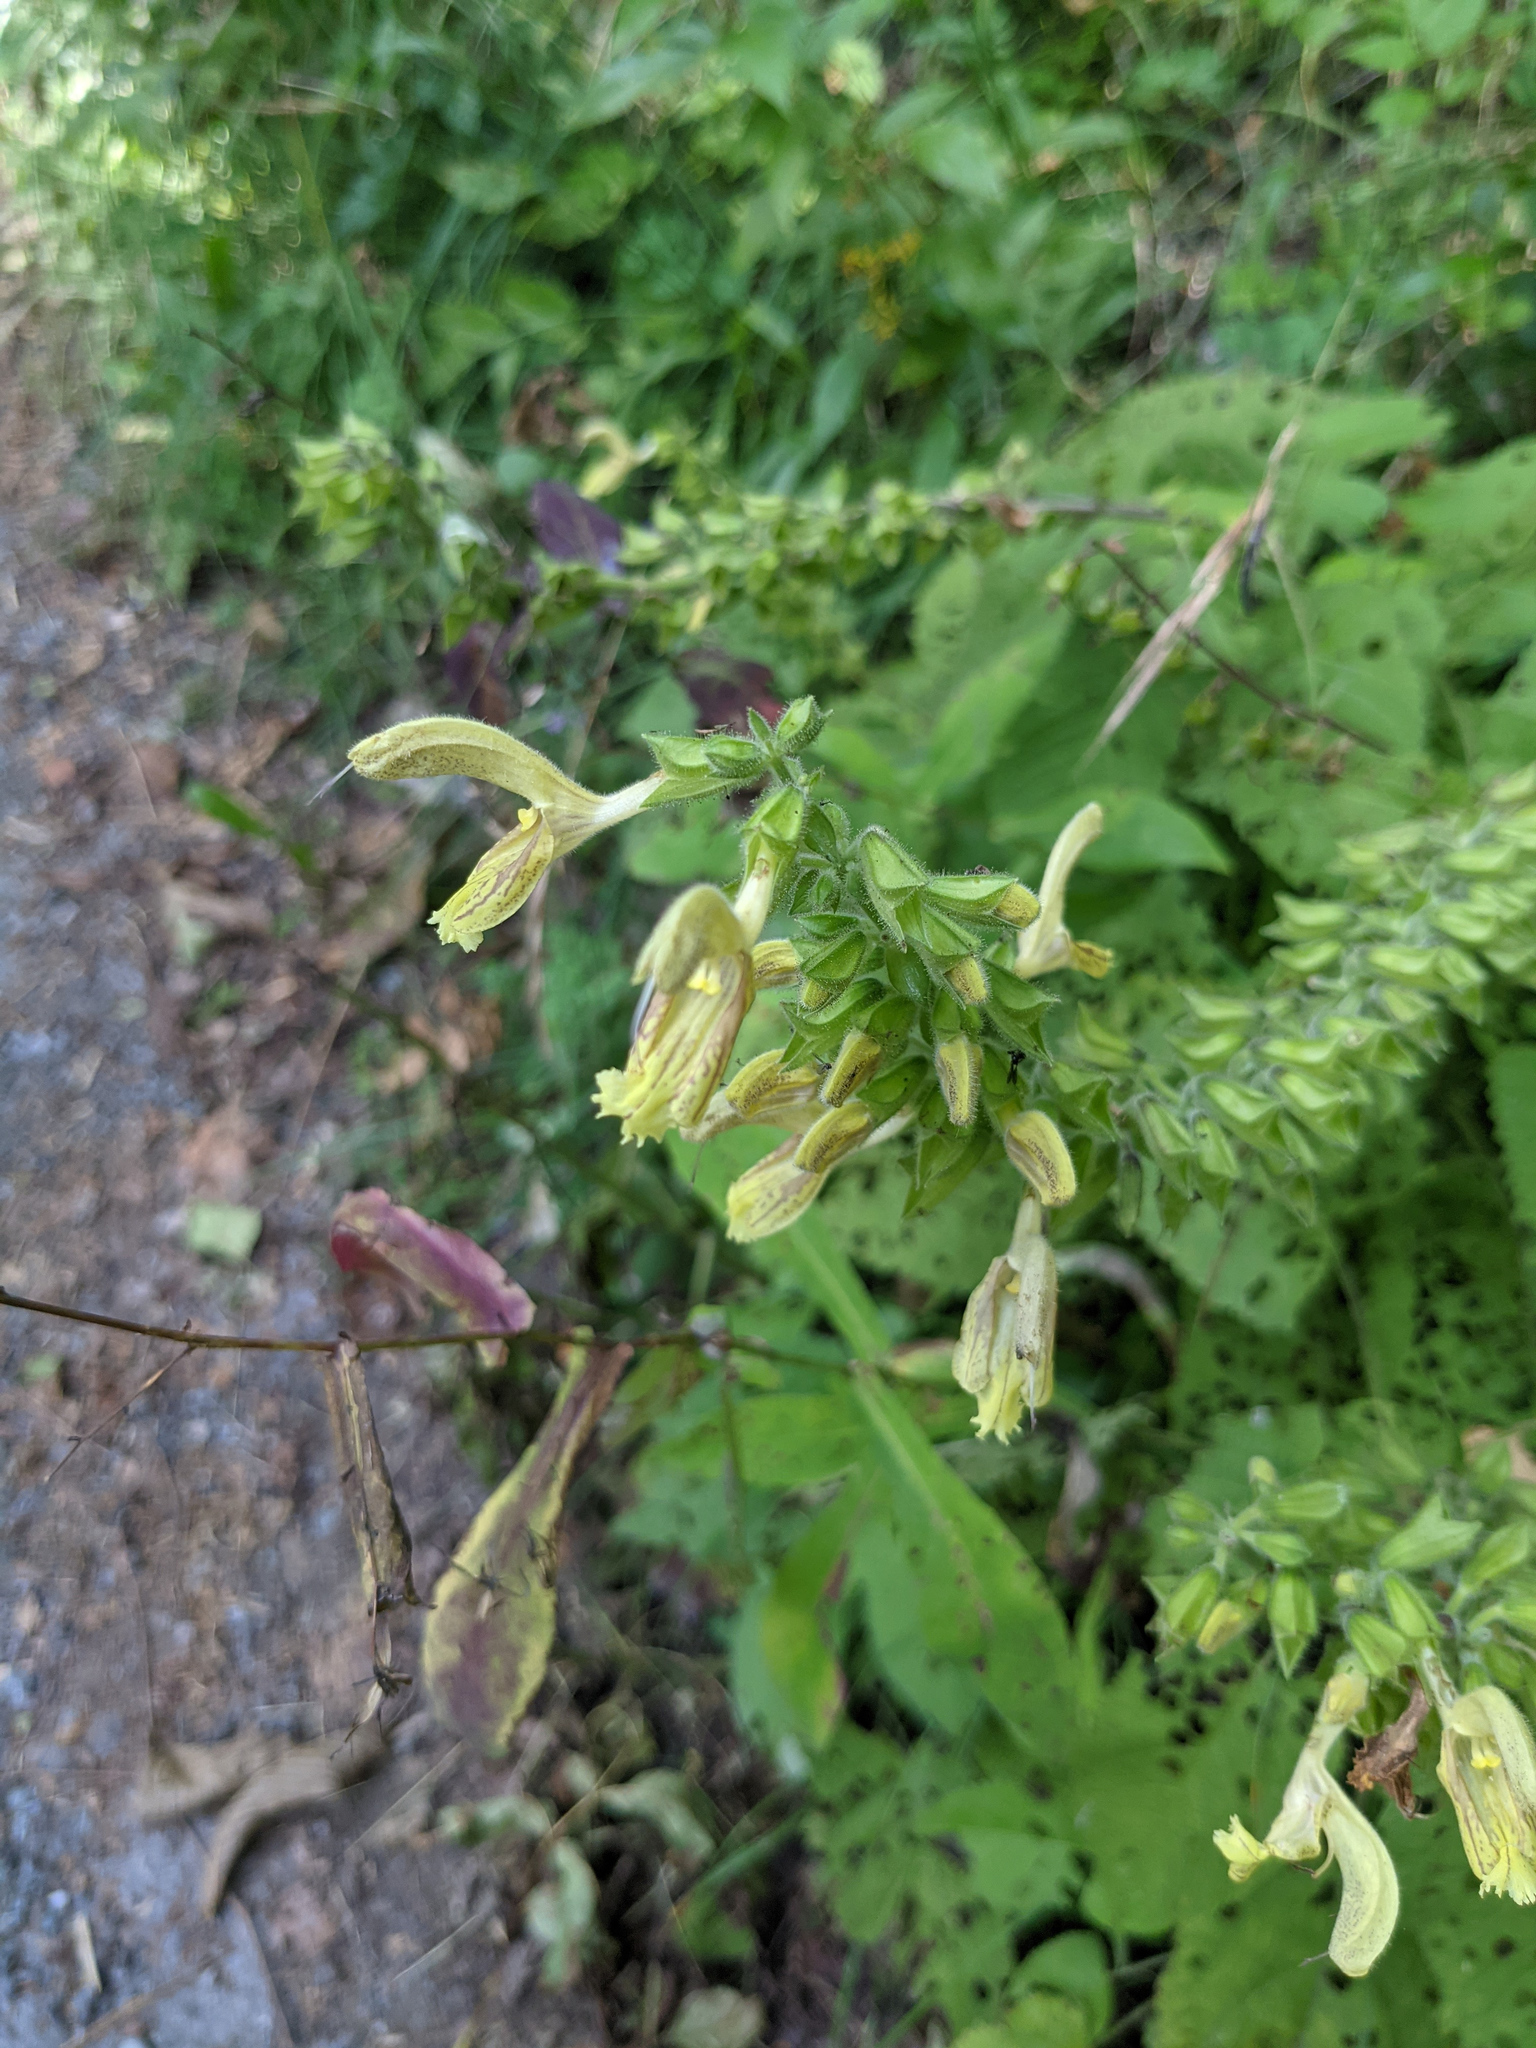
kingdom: Plantae
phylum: Tracheophyta
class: Magnoliopsida
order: Lamiales
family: Lamiaceae
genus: Salvia
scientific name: Salvia glutinosa
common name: Sticky clary
